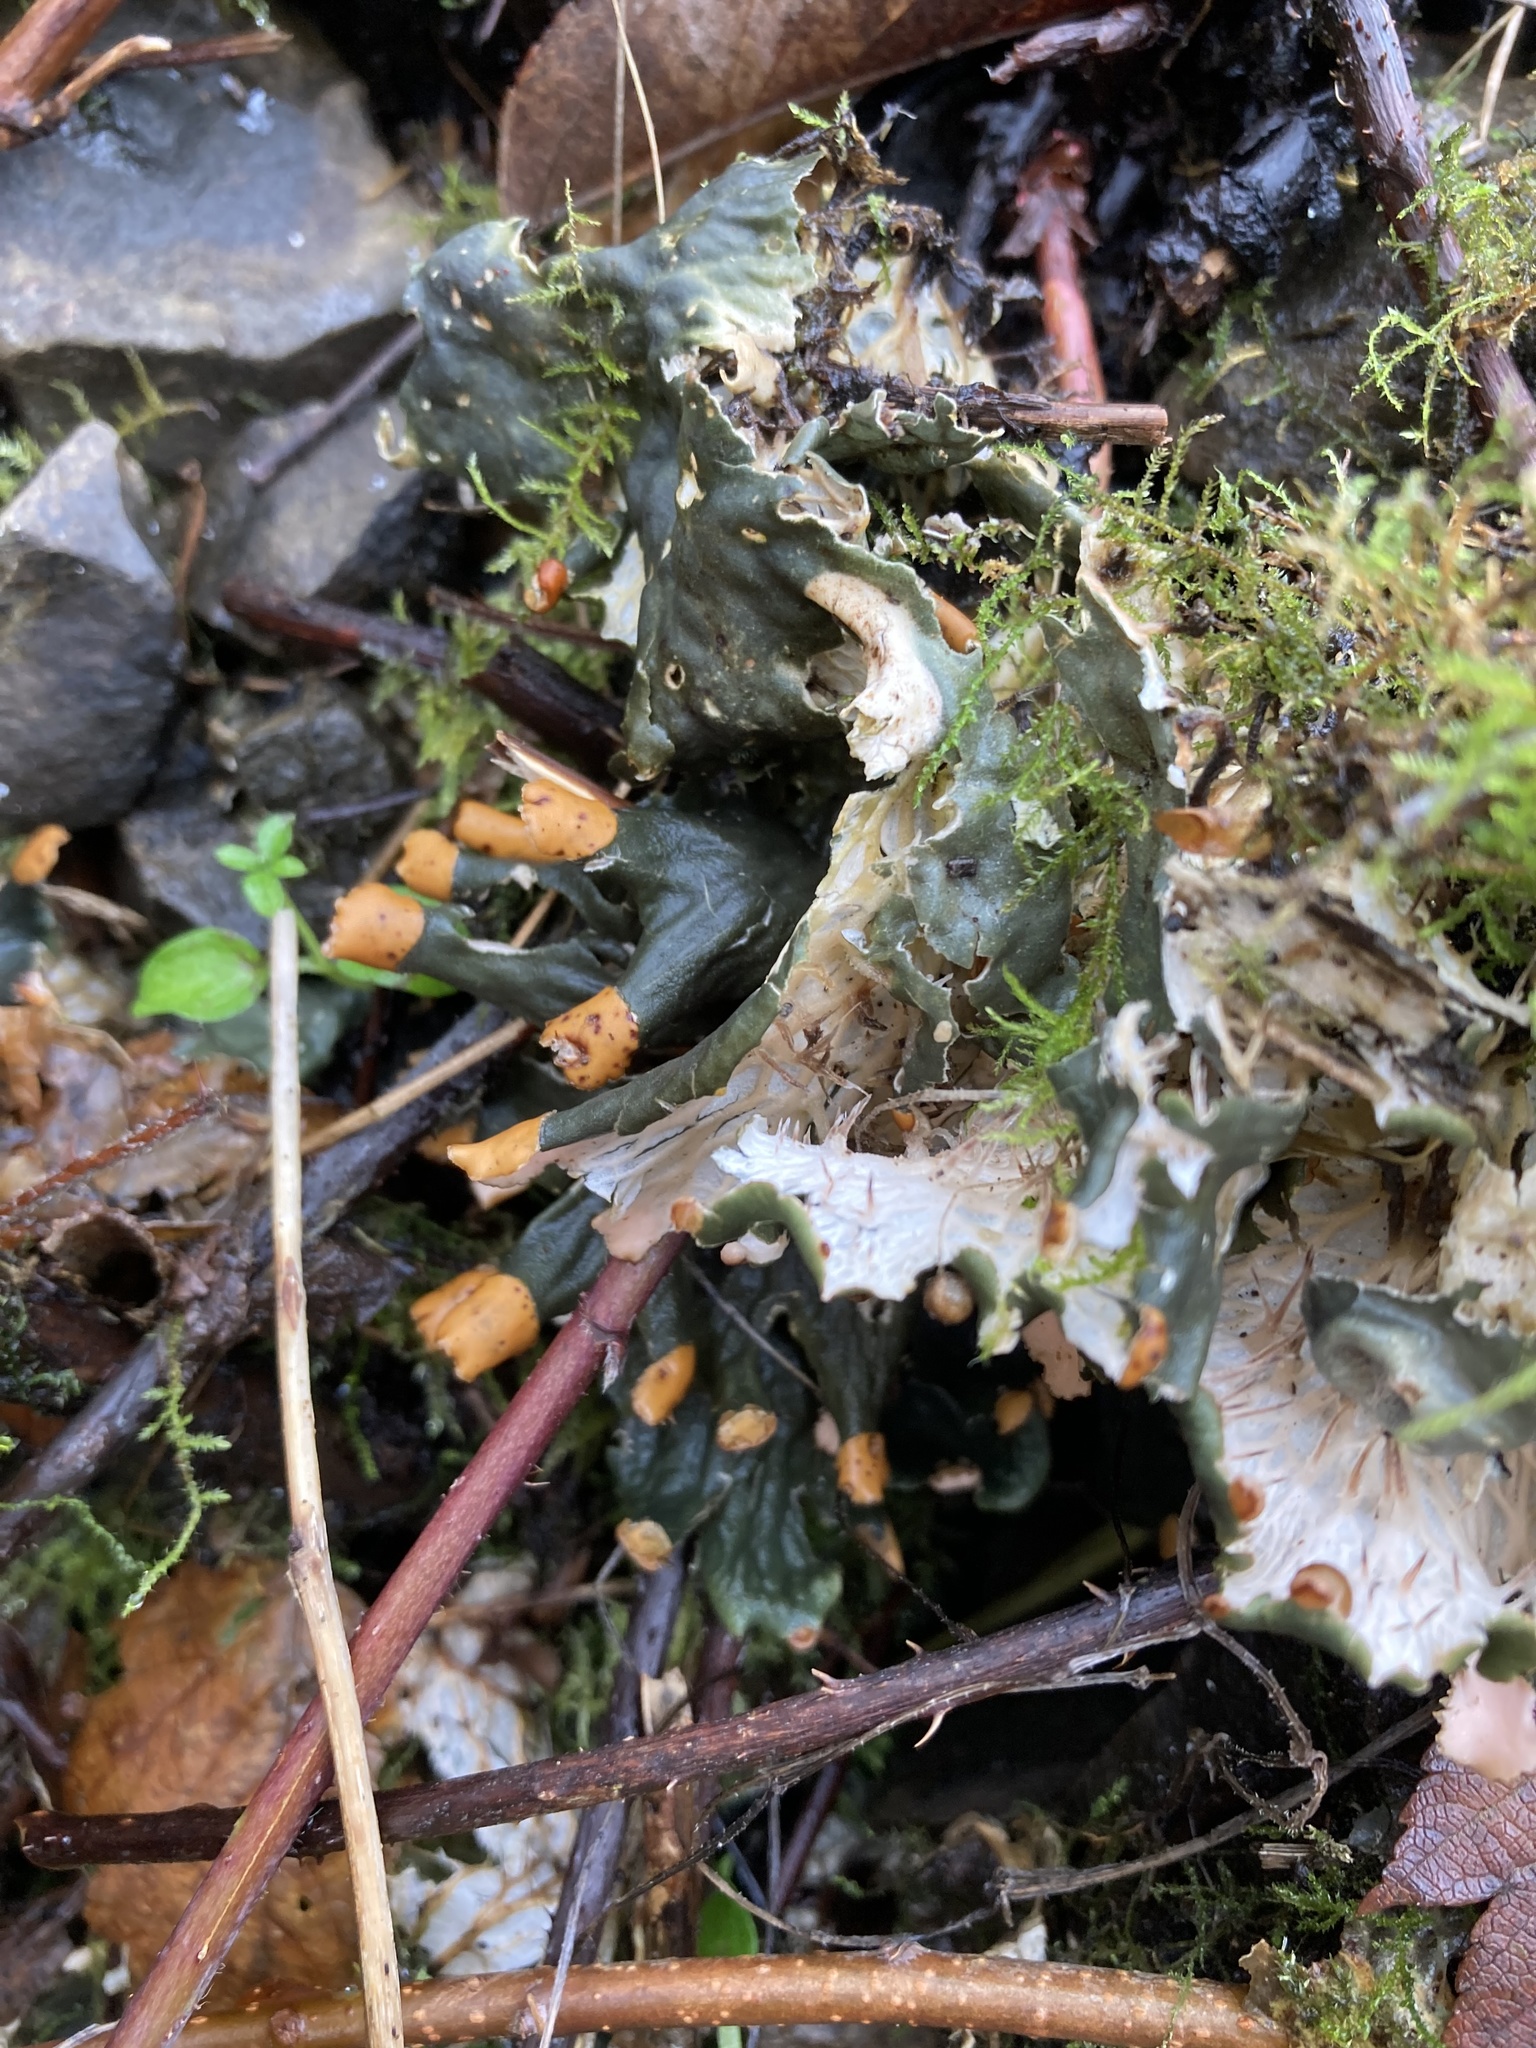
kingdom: Fungi
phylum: Ascomycota
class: Lecanoromycetes
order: Peltigerales
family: Peltigeraceae
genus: Peltigera
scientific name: Peltigera membranacea
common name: Membranous pelt lichen
